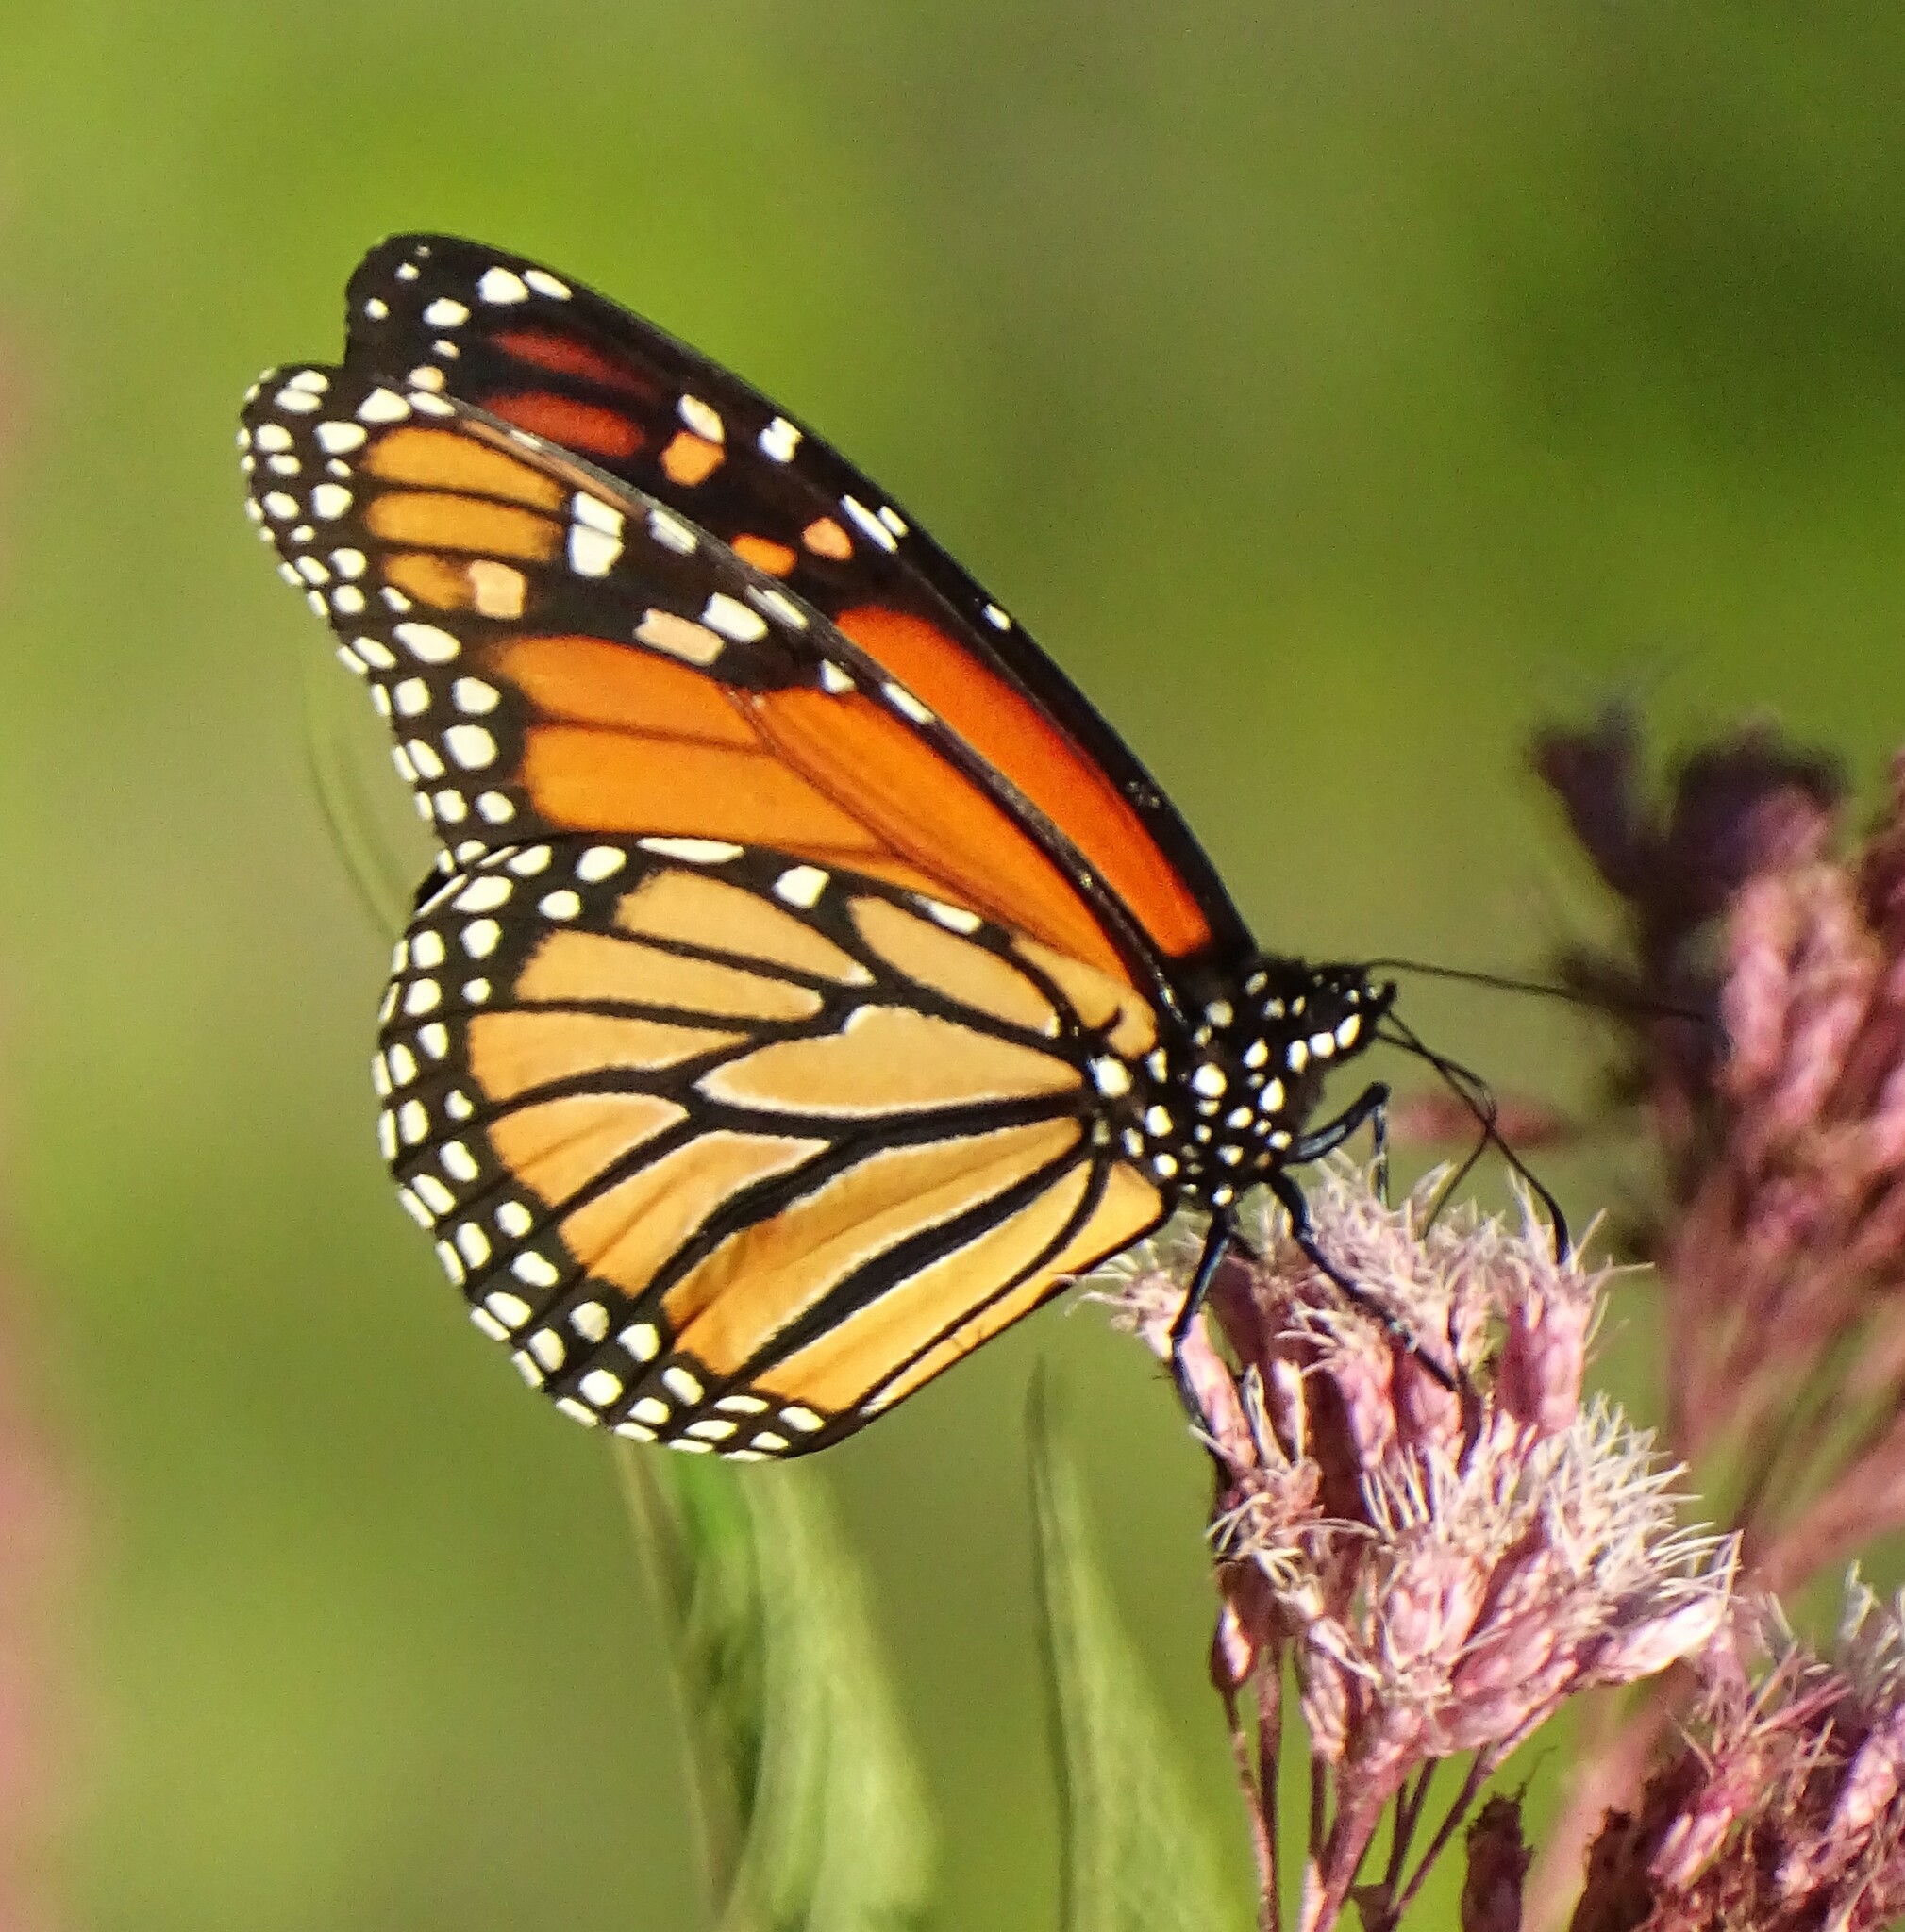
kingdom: Animalia
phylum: Arthropoda
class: Insecta
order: Lepidoptera
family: Nymphalidae
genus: Danaus
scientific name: Danaus plexippus
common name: Monarch
